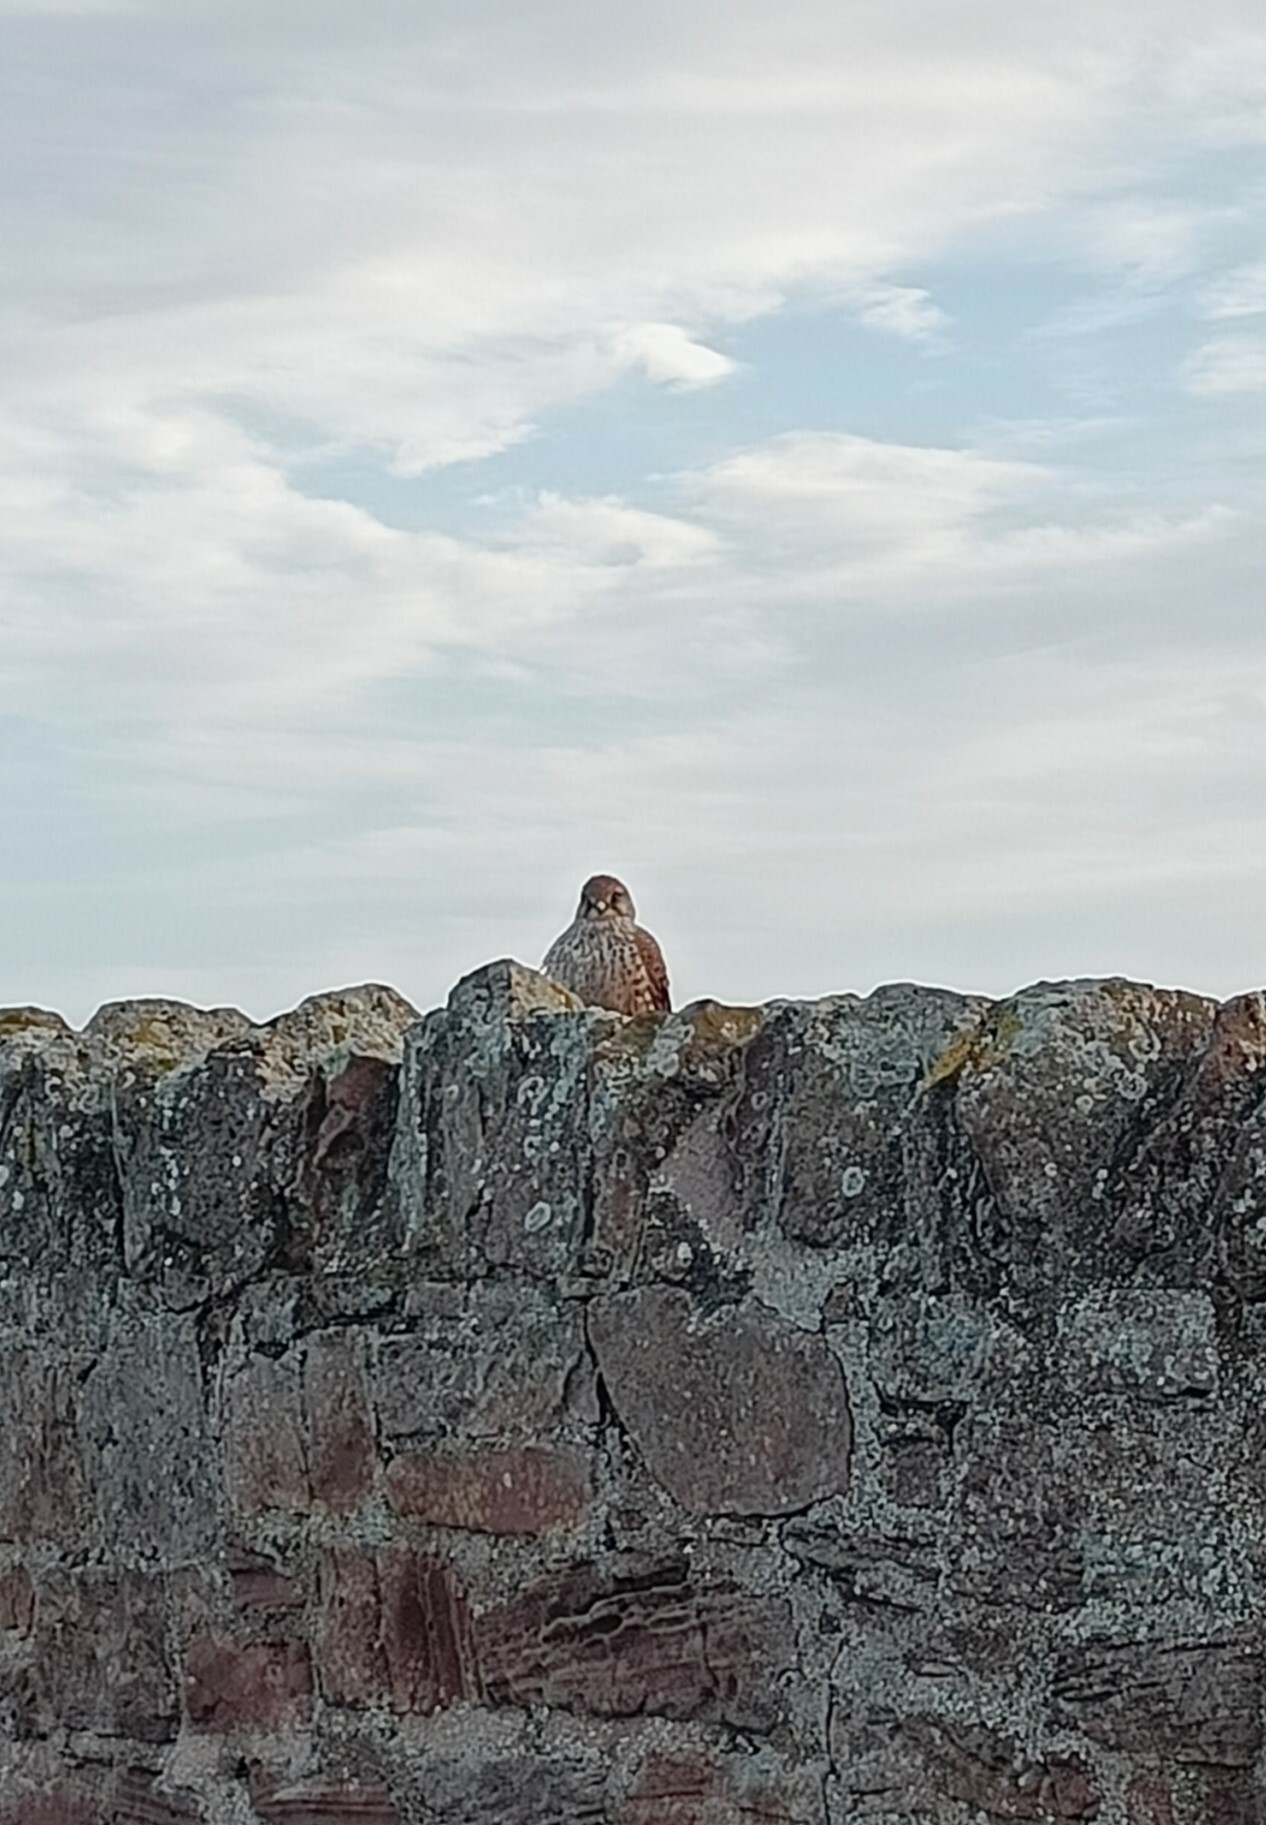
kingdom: Animalia
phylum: Chordata
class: Aves
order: Falconiformes
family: Falconidae
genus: Falco
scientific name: Falco tinnunculus
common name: Common kestrel
